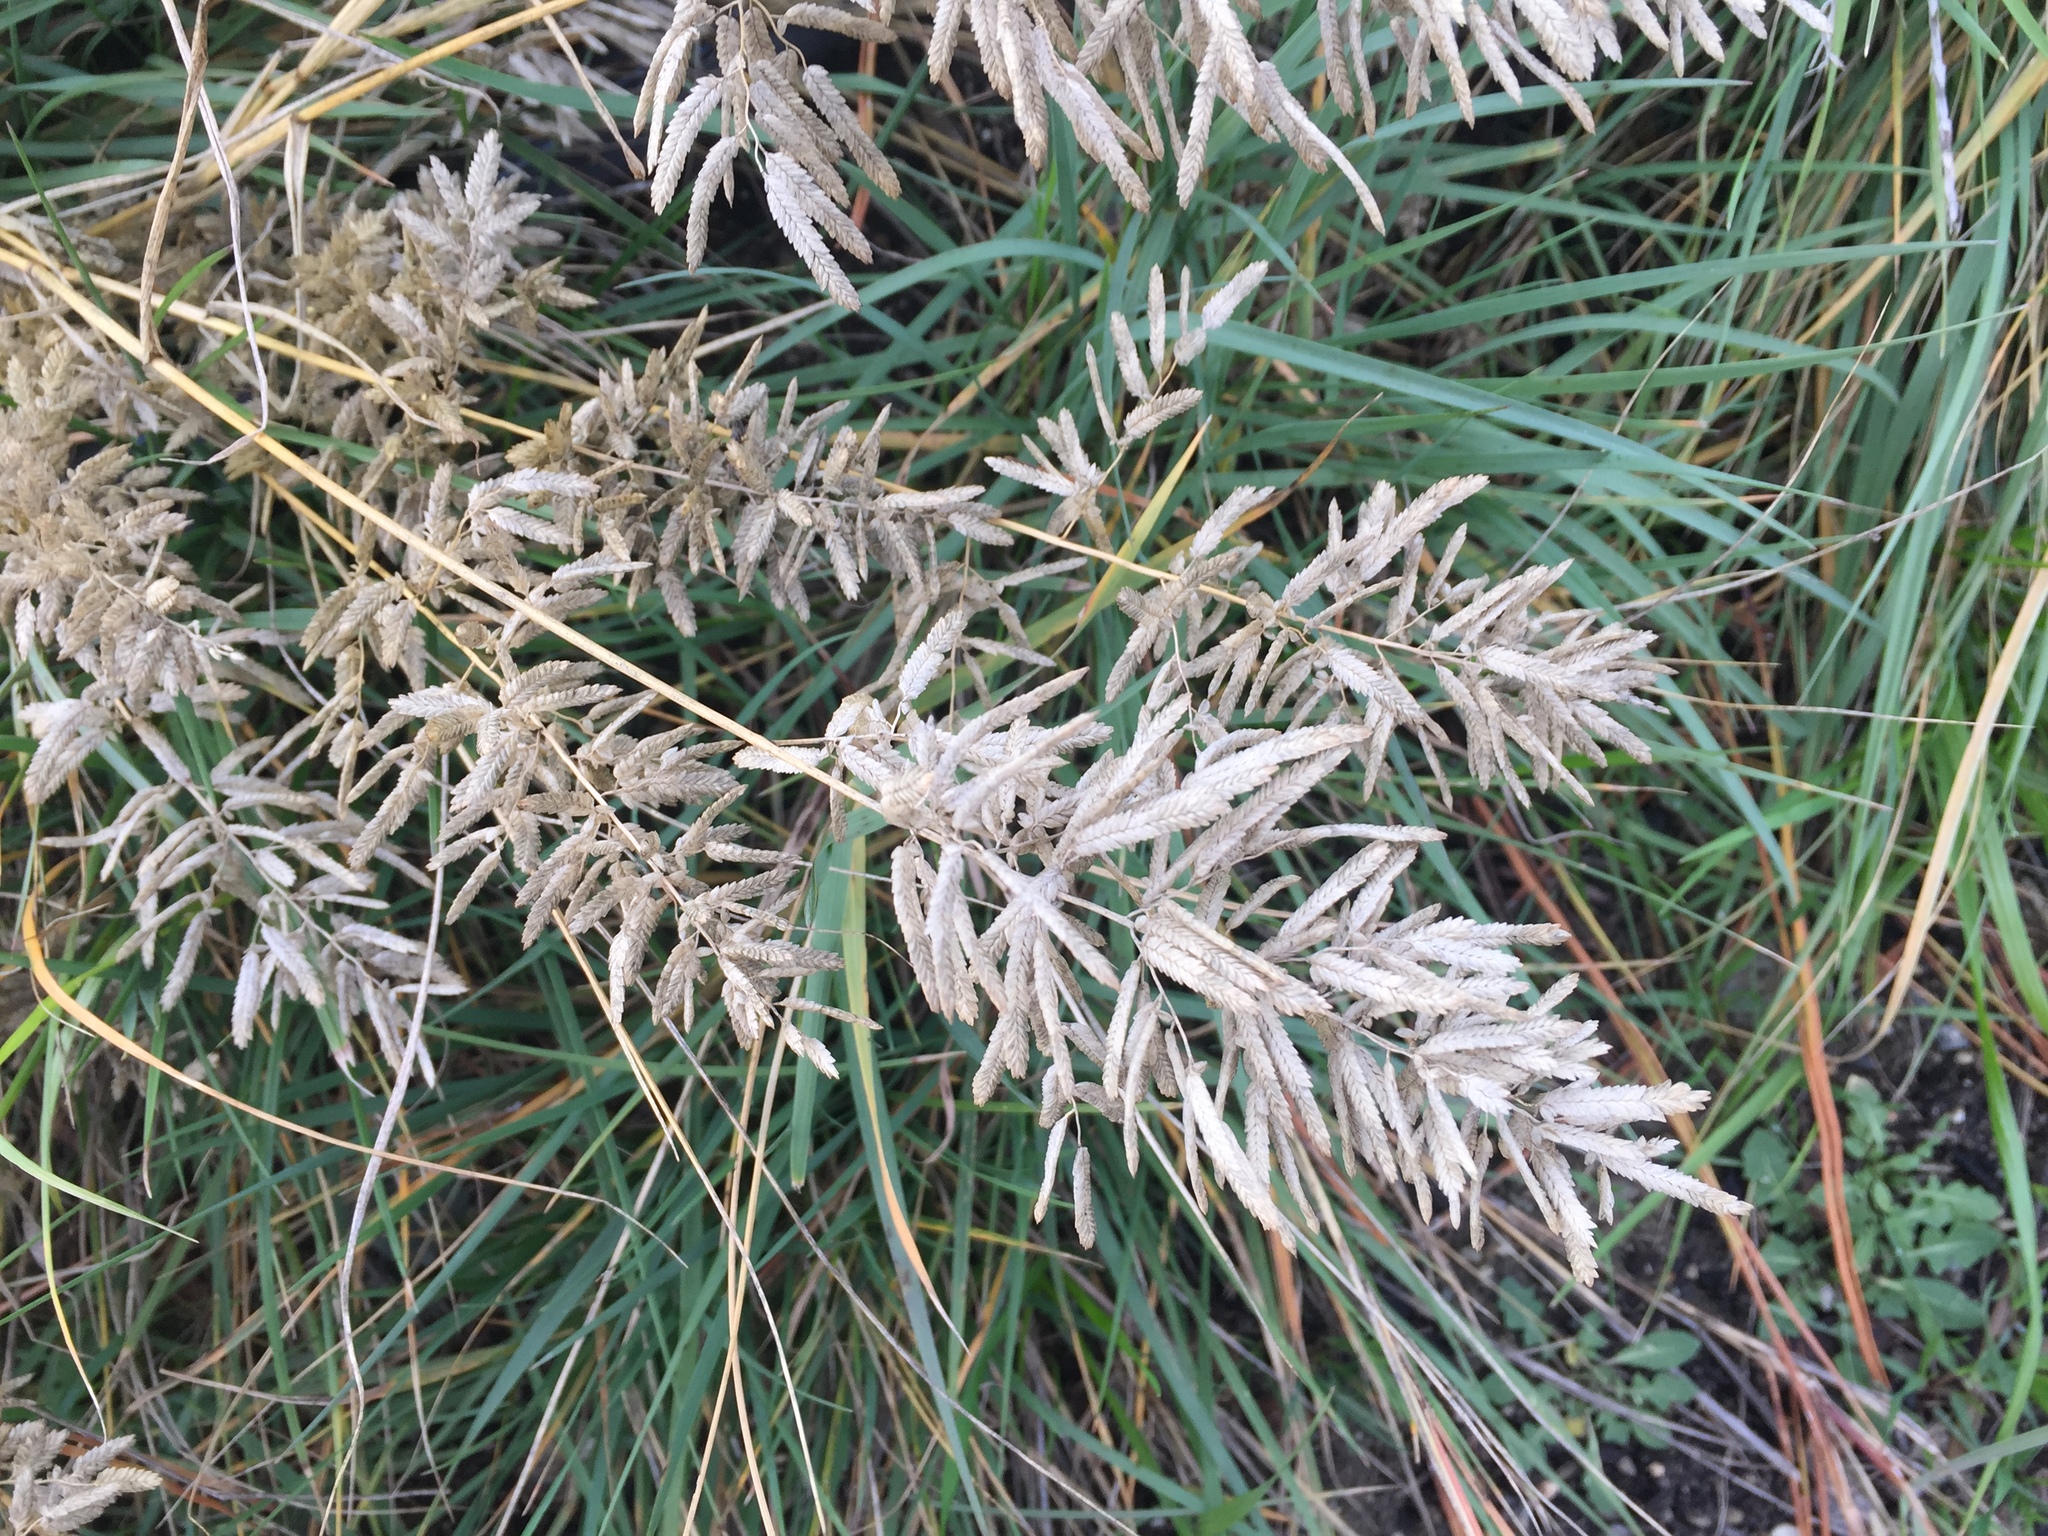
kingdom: Plantae
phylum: Tracheophyta
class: Liliopsida
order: Poales
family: Poaceae
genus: Eragrostis
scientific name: Eragrostis cilianensis
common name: Stinkgrass
